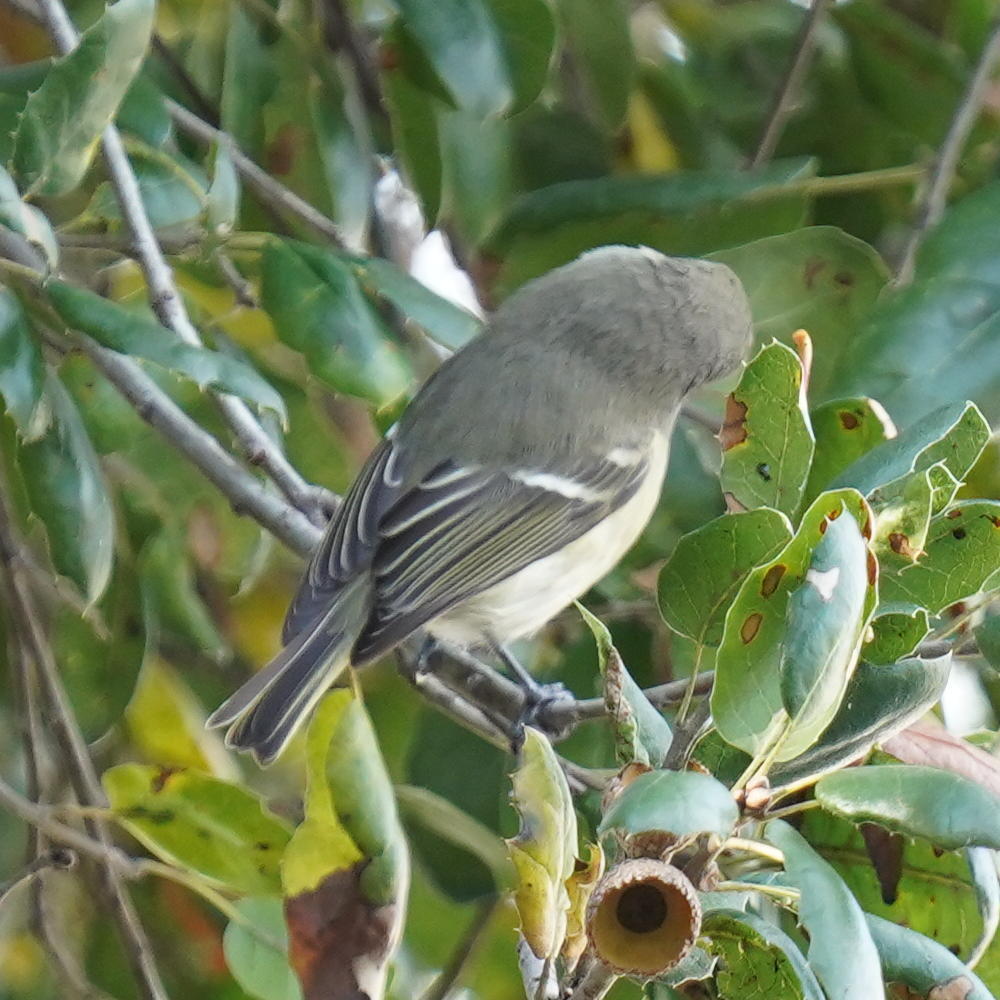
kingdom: Animalia
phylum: Chordata
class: Aves
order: Passeriformes
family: Regulidae
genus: Regulus
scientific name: Regulus calendula
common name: Ruby-crowned kinglet
